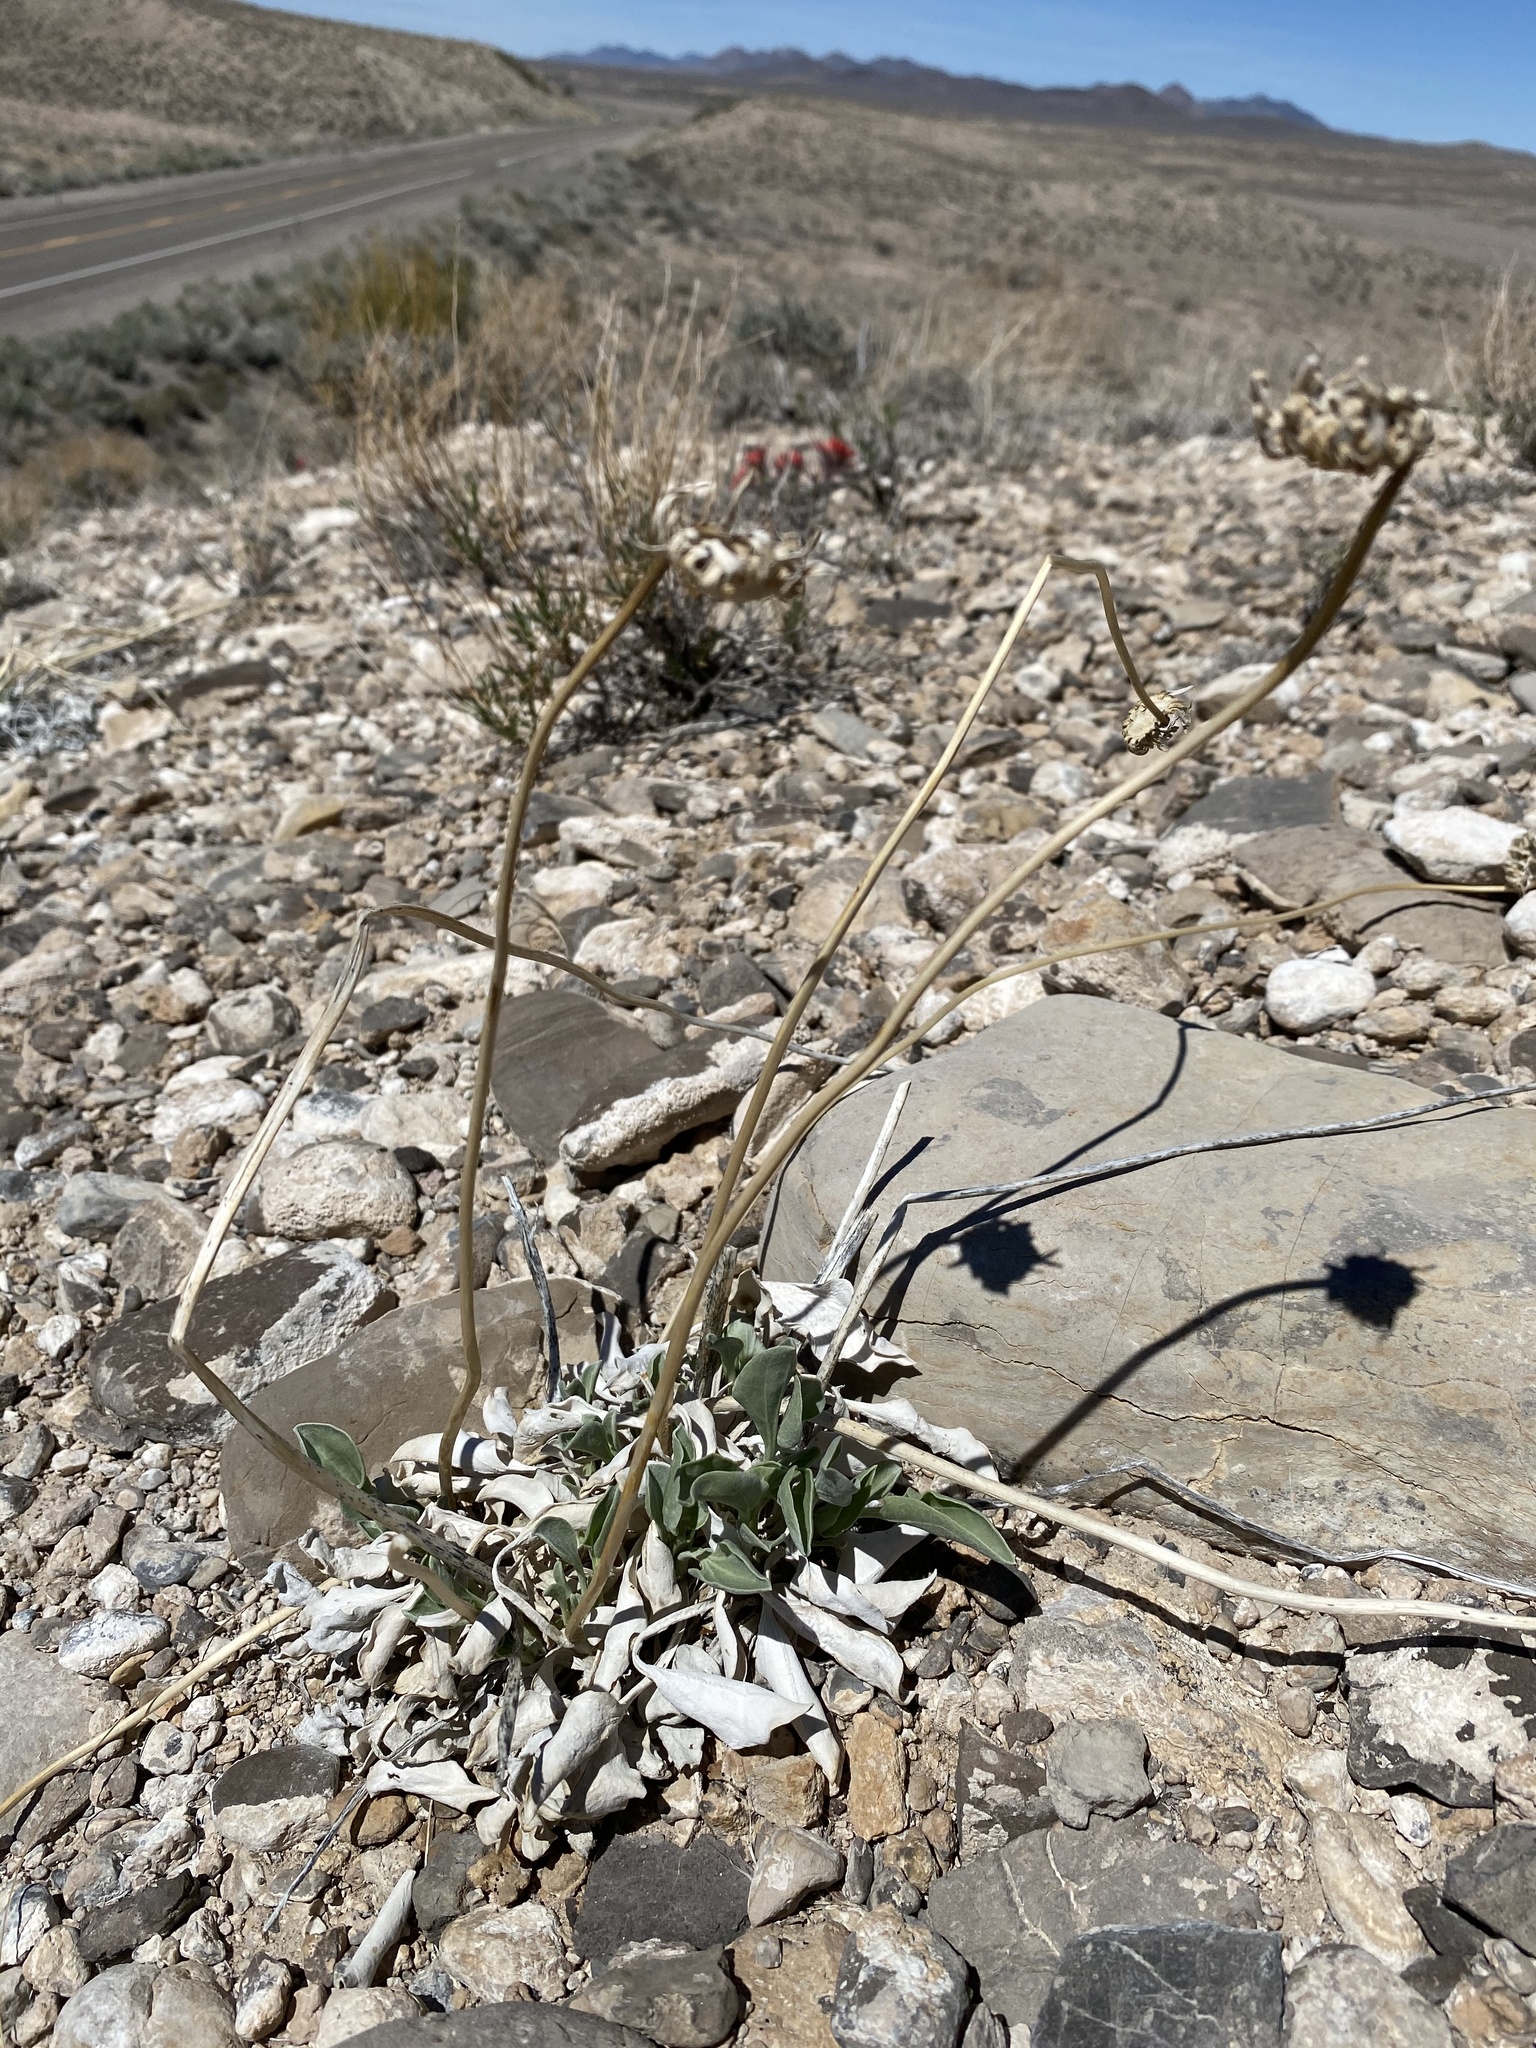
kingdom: Plantae
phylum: Tracheophyta
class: Magnoliopsida
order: Asterales
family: Asteraceae
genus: Enceliopsis
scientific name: Enceliopsis nudicaulis
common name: Naked-stem daisy
